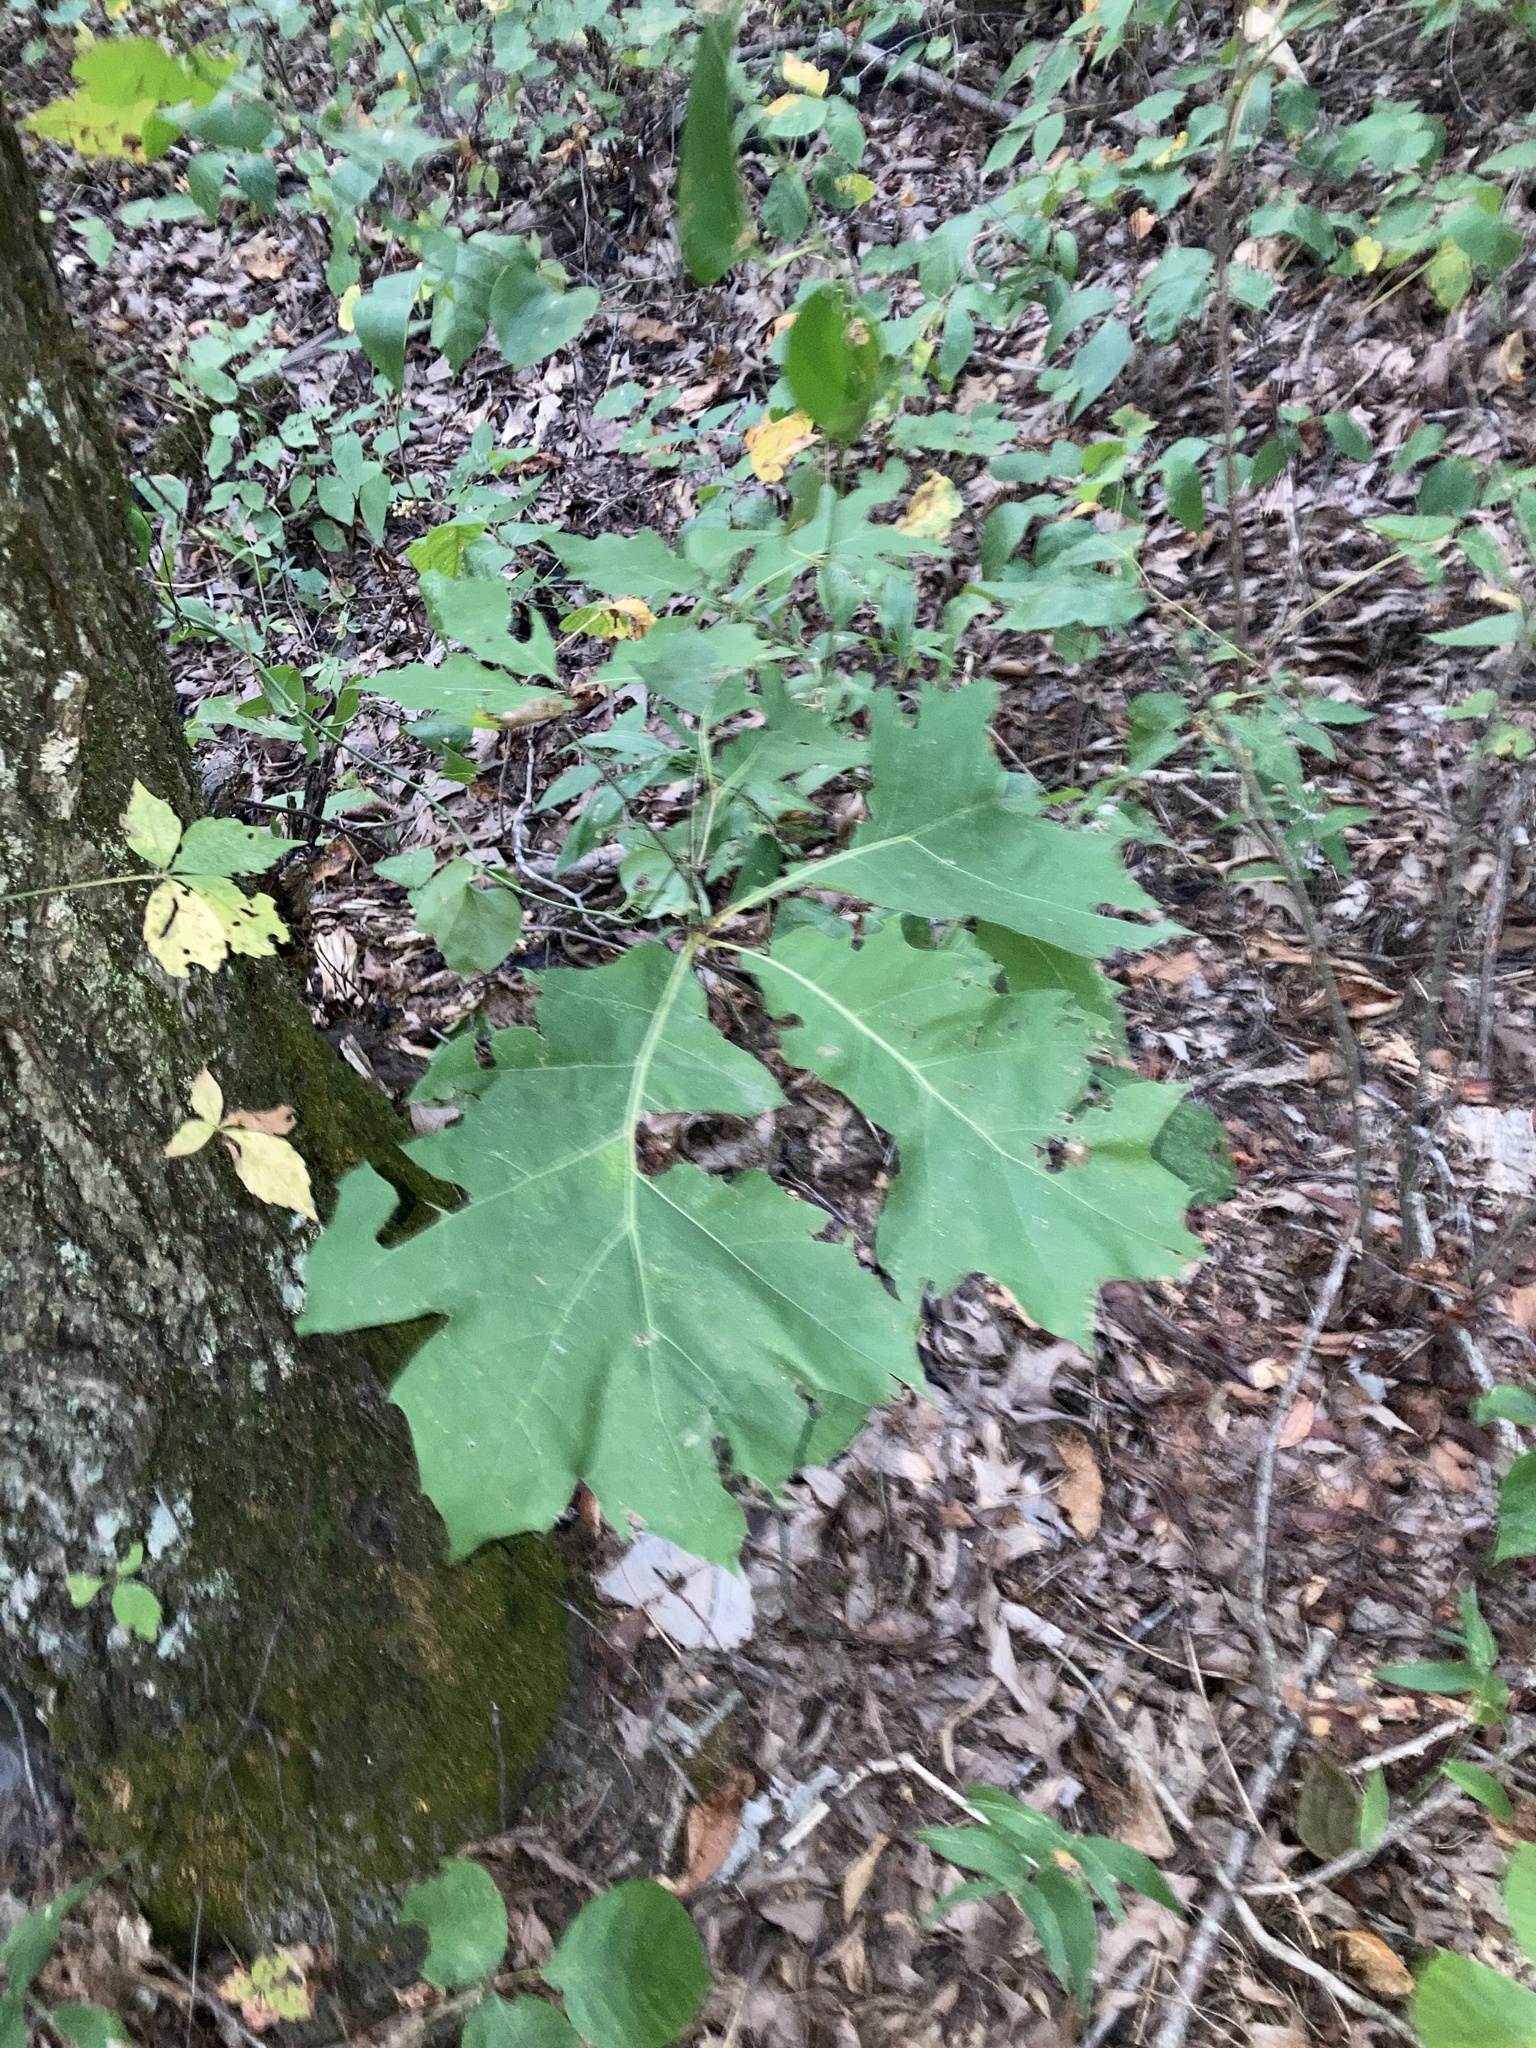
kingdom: Plantae
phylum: Tracheophyta
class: Magnoliopsida
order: Fagales
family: Fagaceae
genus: Quercus
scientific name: Quercus velutina
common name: Black oak
